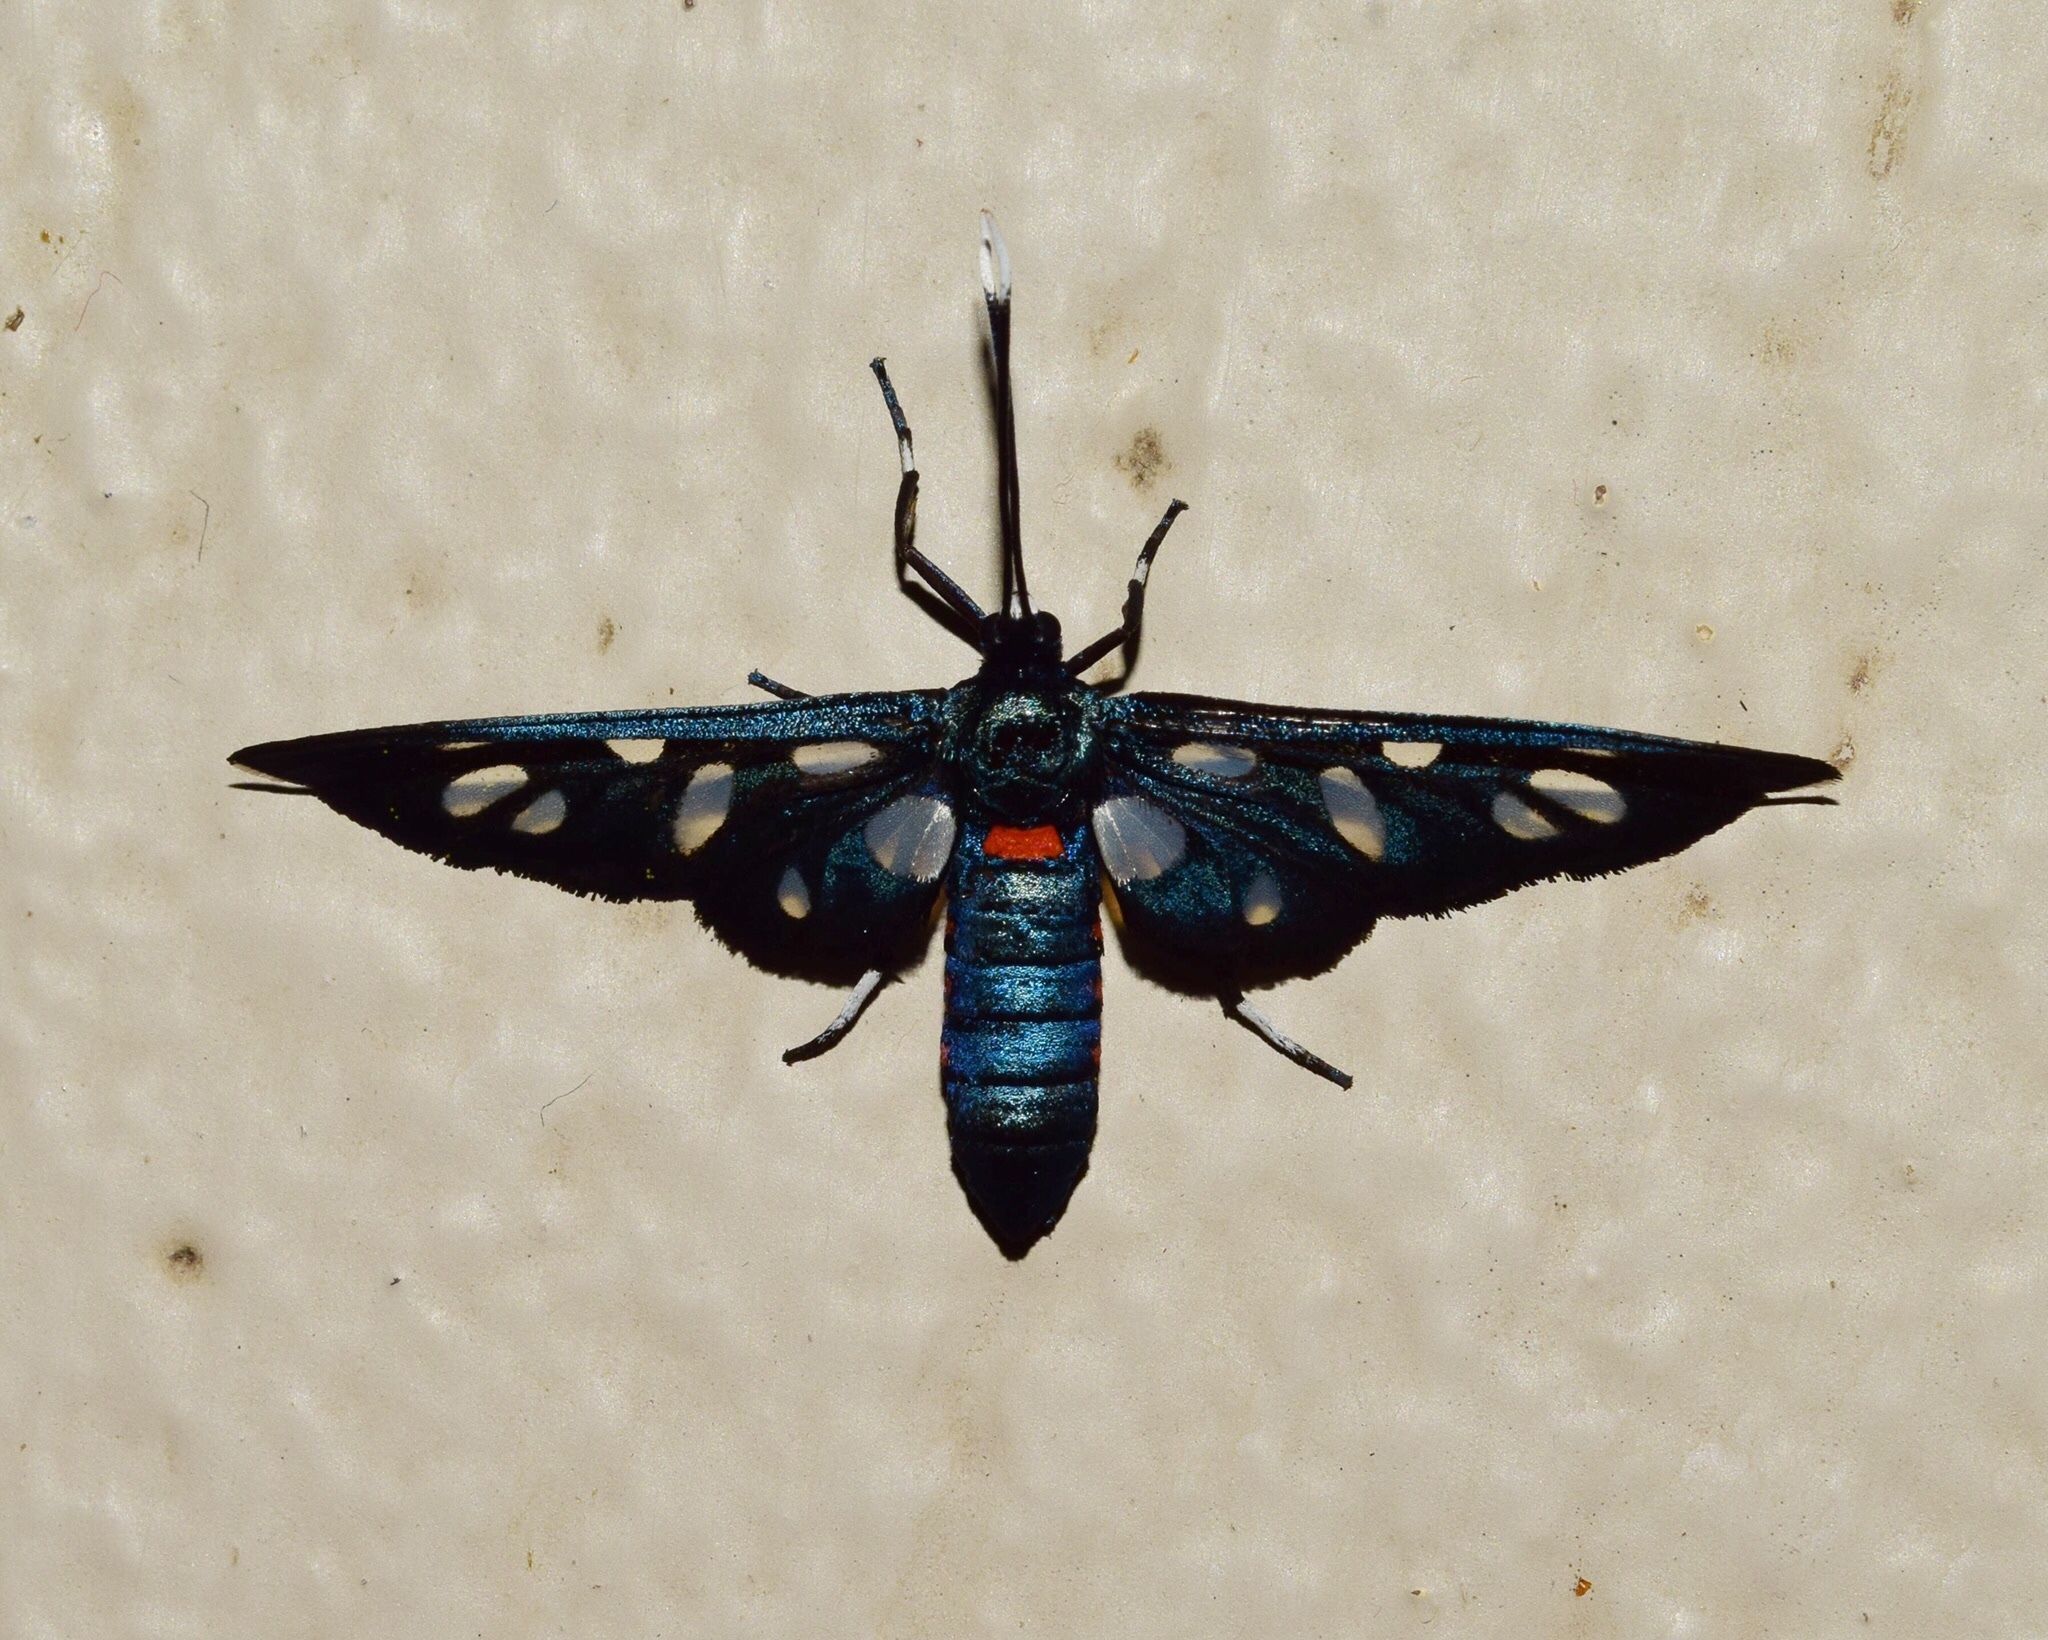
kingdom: Animalia
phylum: Arthropoda
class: Insecta
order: Lepidoptera
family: Erebidae
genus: Amata
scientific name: Amata kuhlweini
